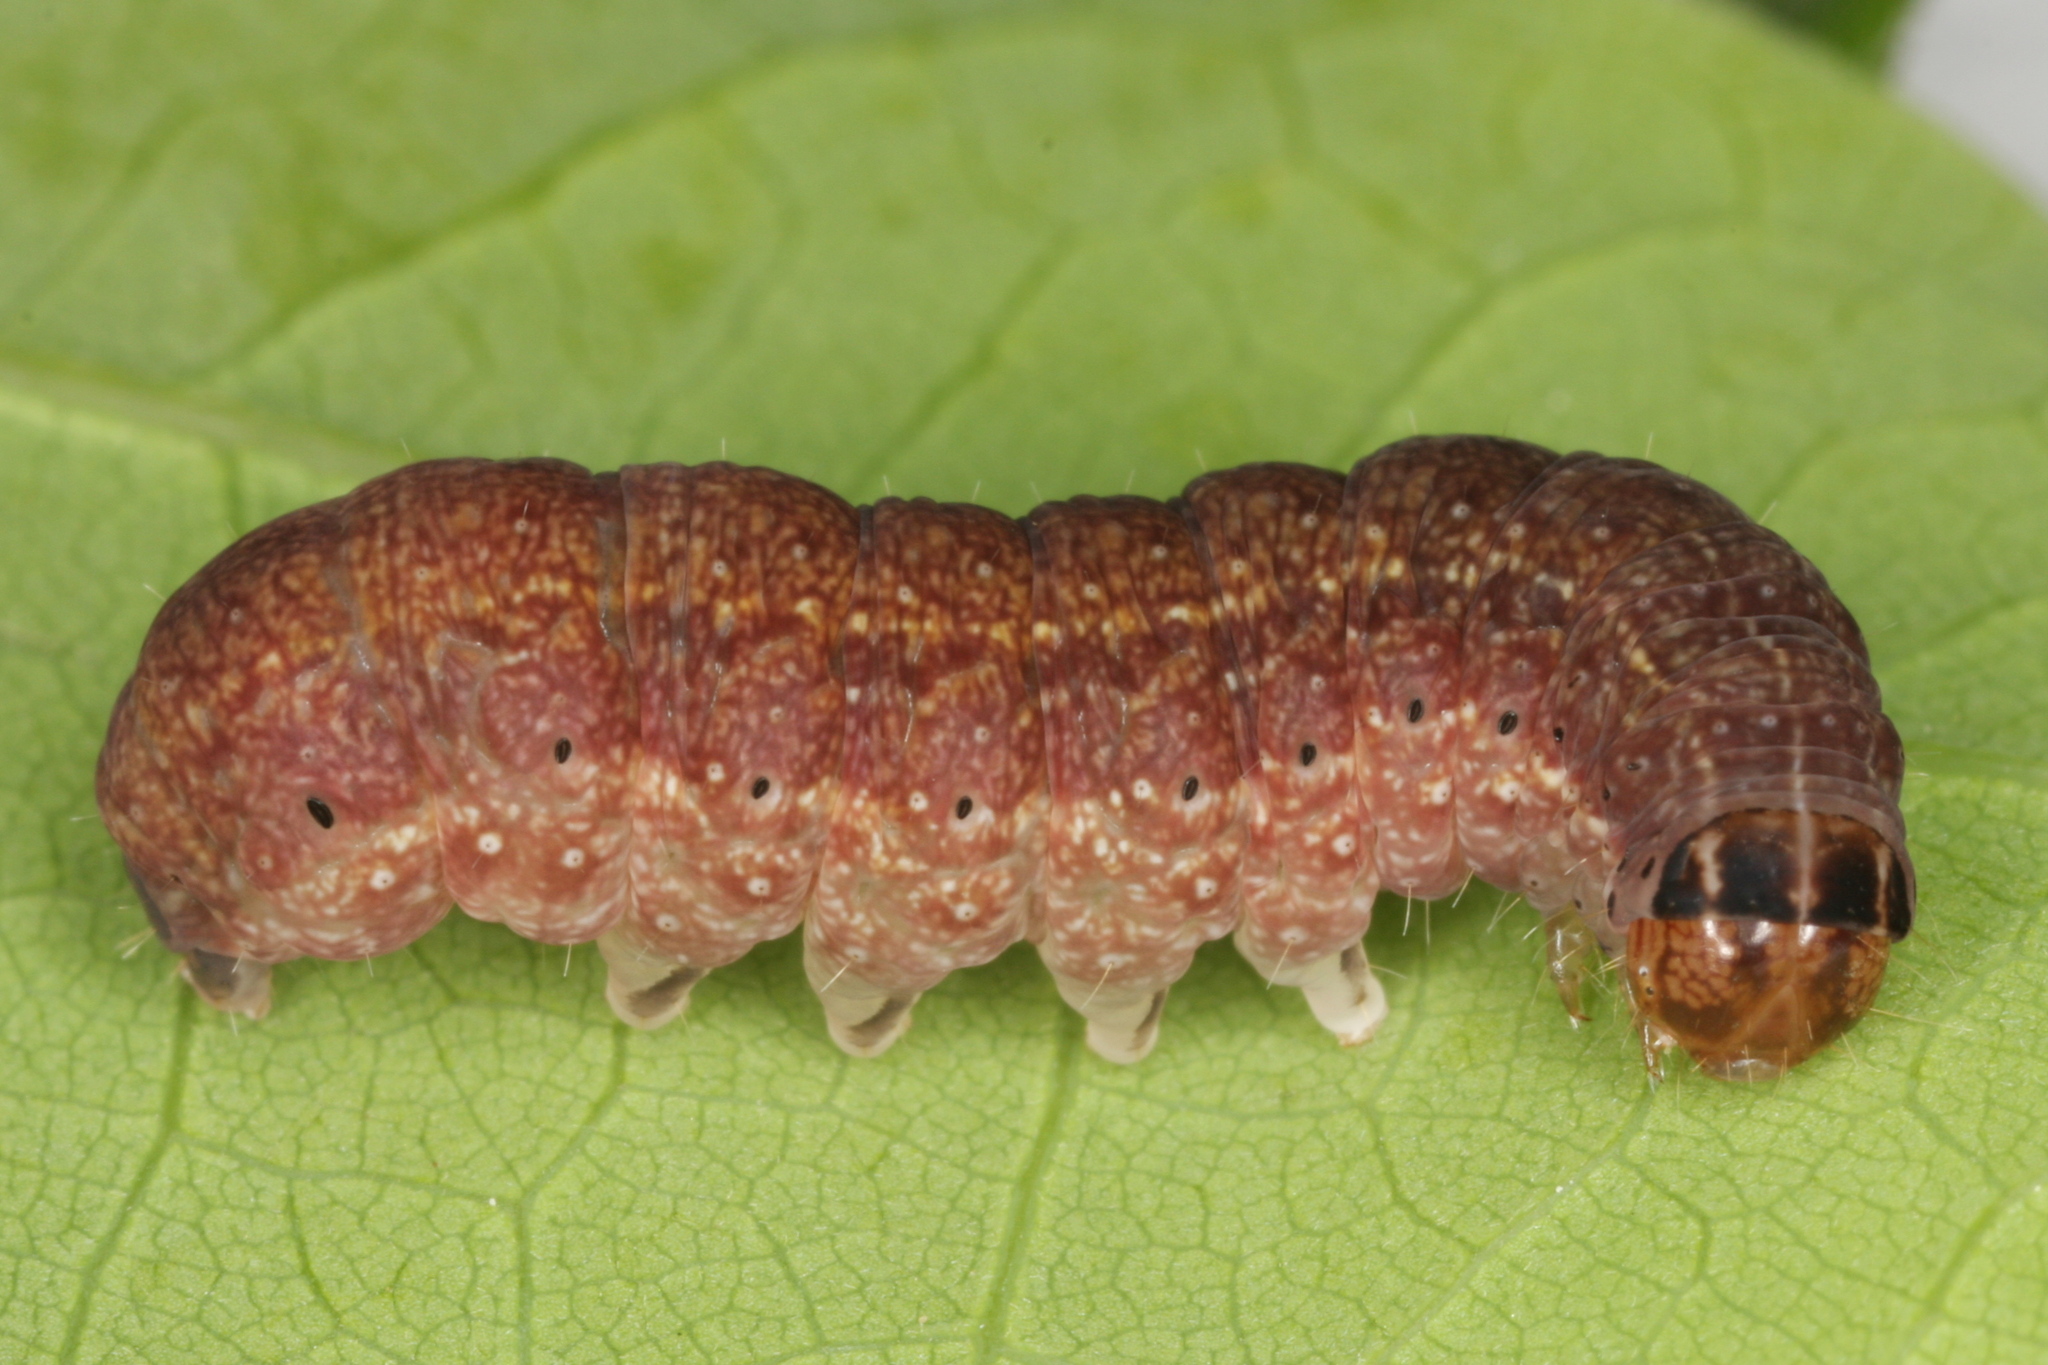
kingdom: Animalia
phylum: Arthropoda
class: Insecta
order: Lepidoptera
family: Noctuidae
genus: Conistra
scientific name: Conistra vaccinii
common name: Chestnut
